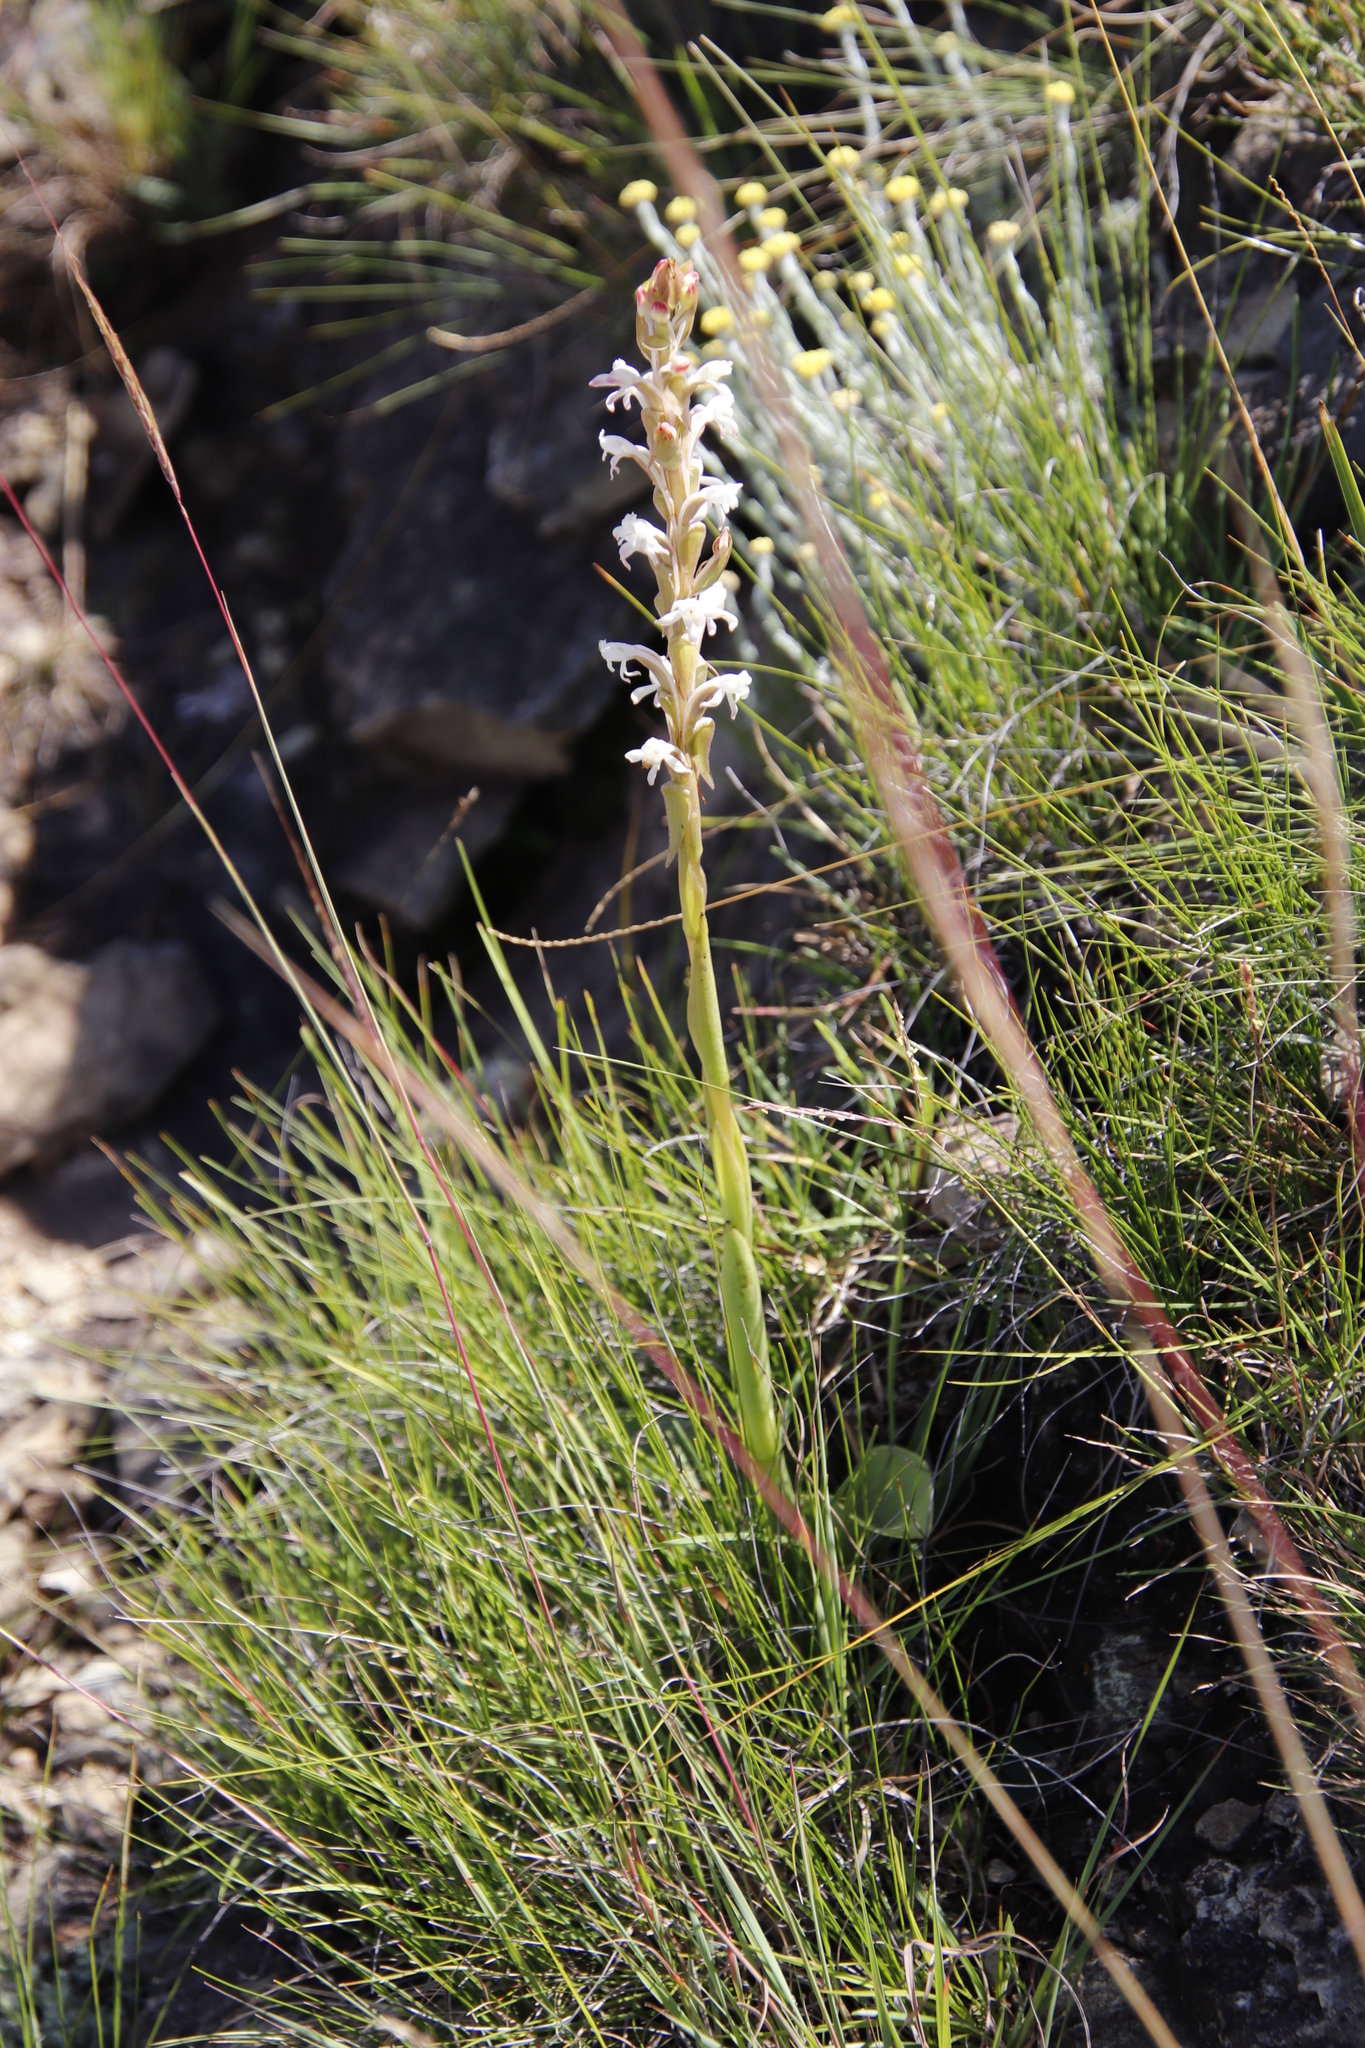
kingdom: Plantae
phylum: Tracheophyta
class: Liliopsida
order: Asparagales
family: Orchidaceae
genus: Satyrium
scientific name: Satyrium longicauda
